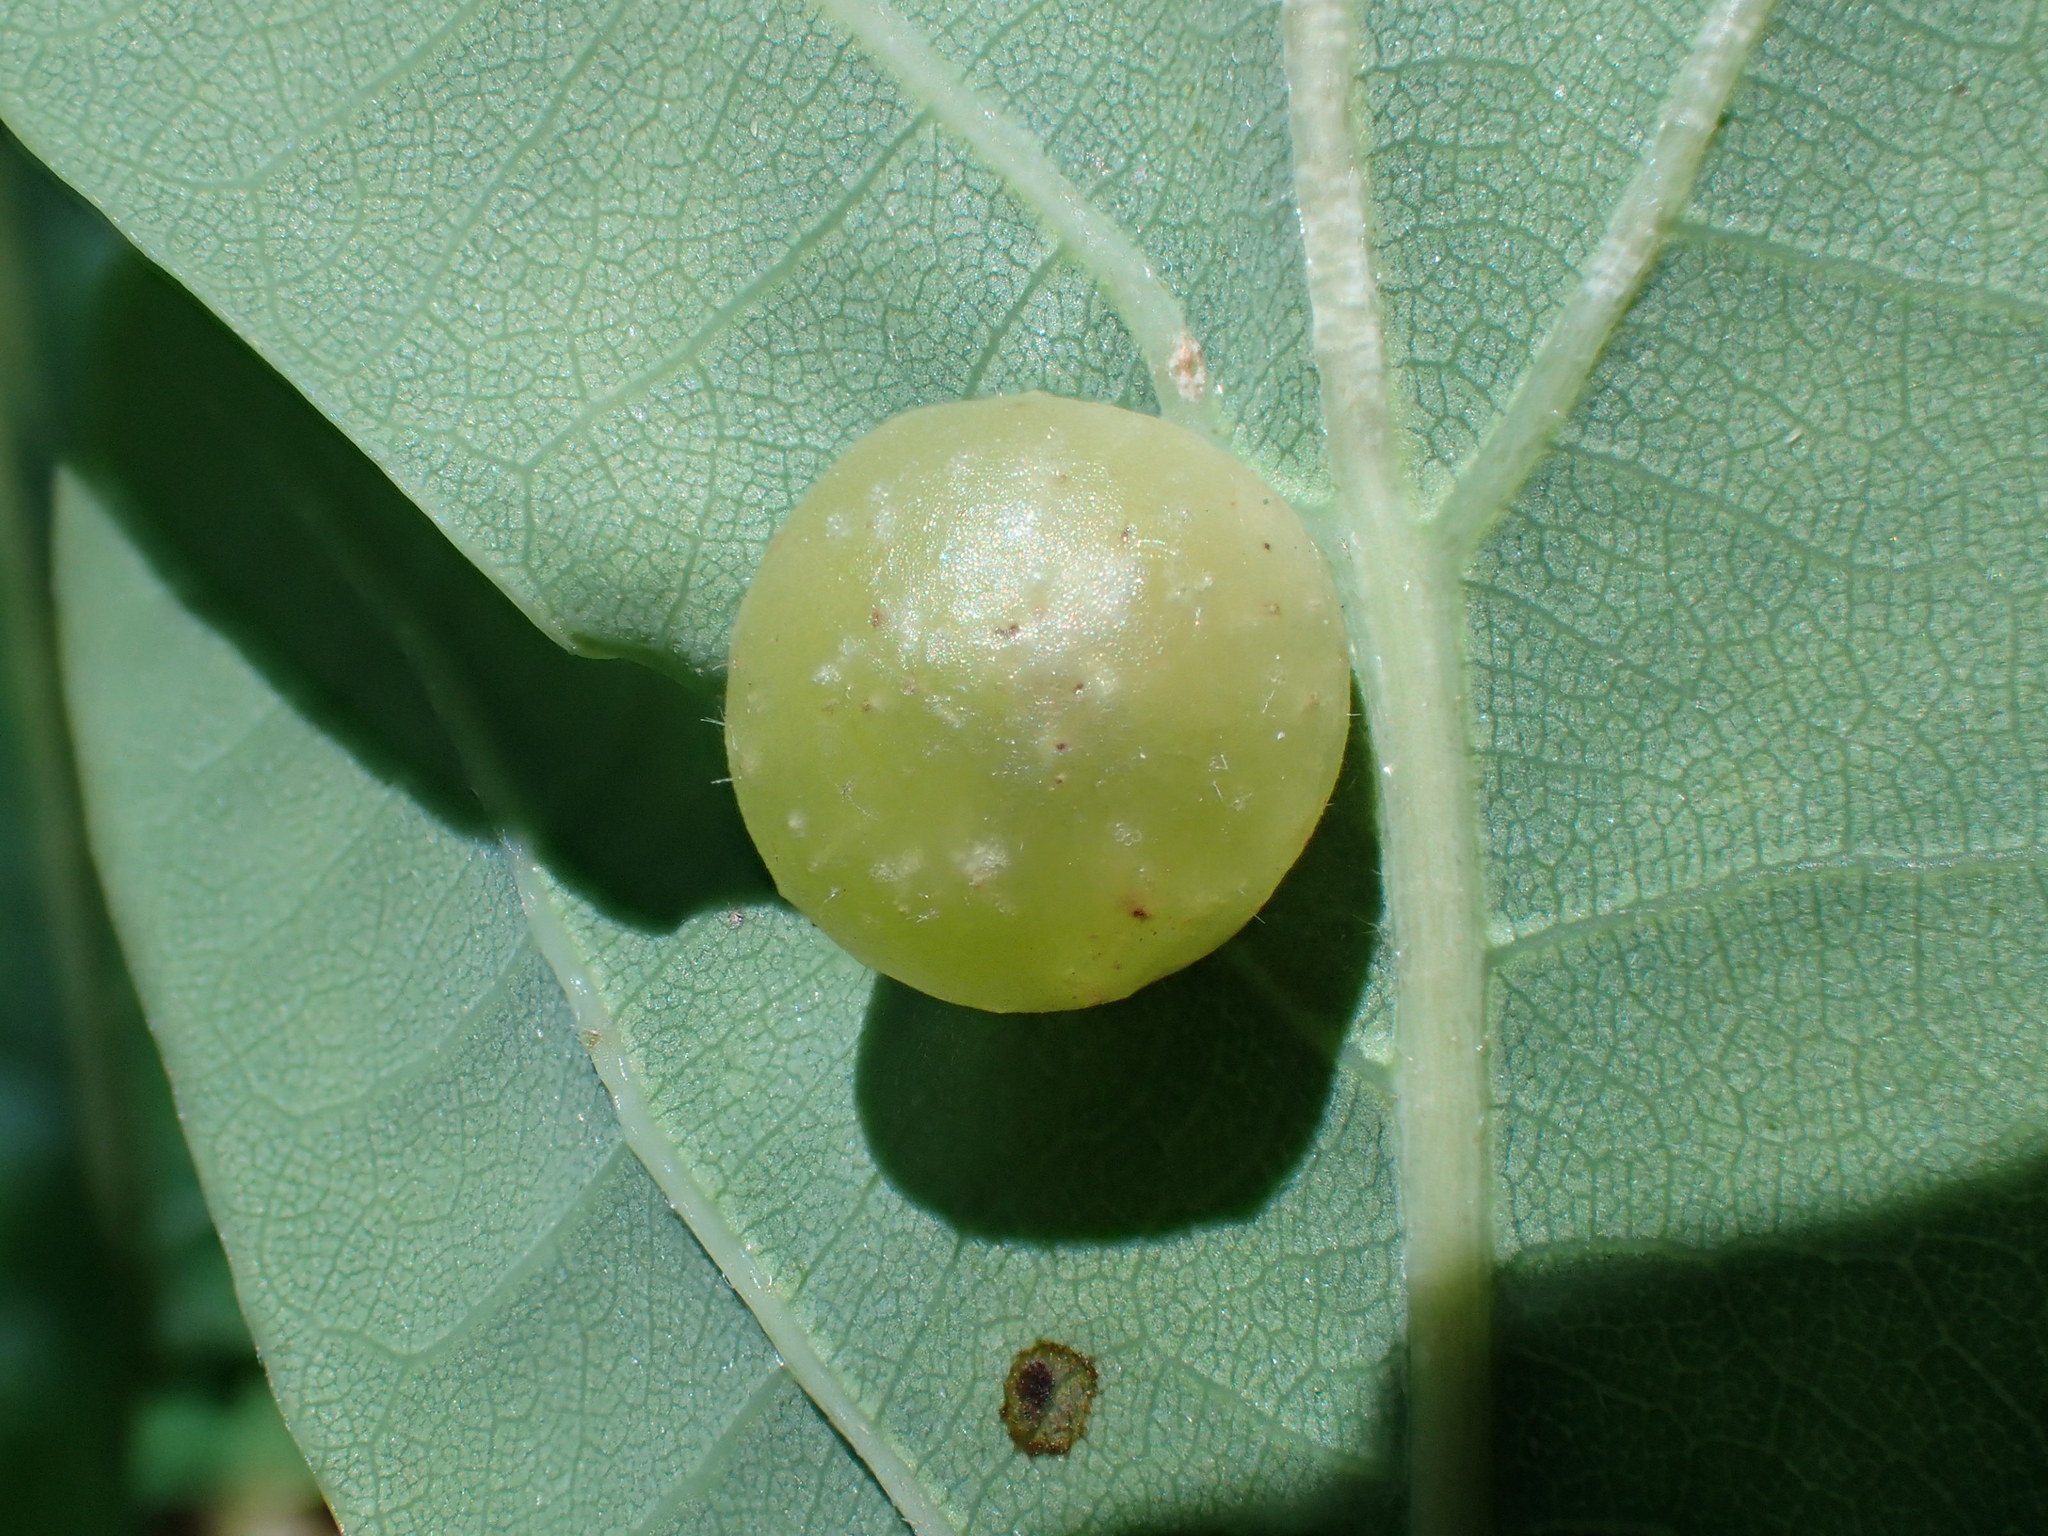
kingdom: Animalia
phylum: Arthropoda
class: Insecta
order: Hymenoptera
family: Cynipidae
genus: Neuroterus
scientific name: Neuroterus quercusbaccarum
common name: Common spangle gall
